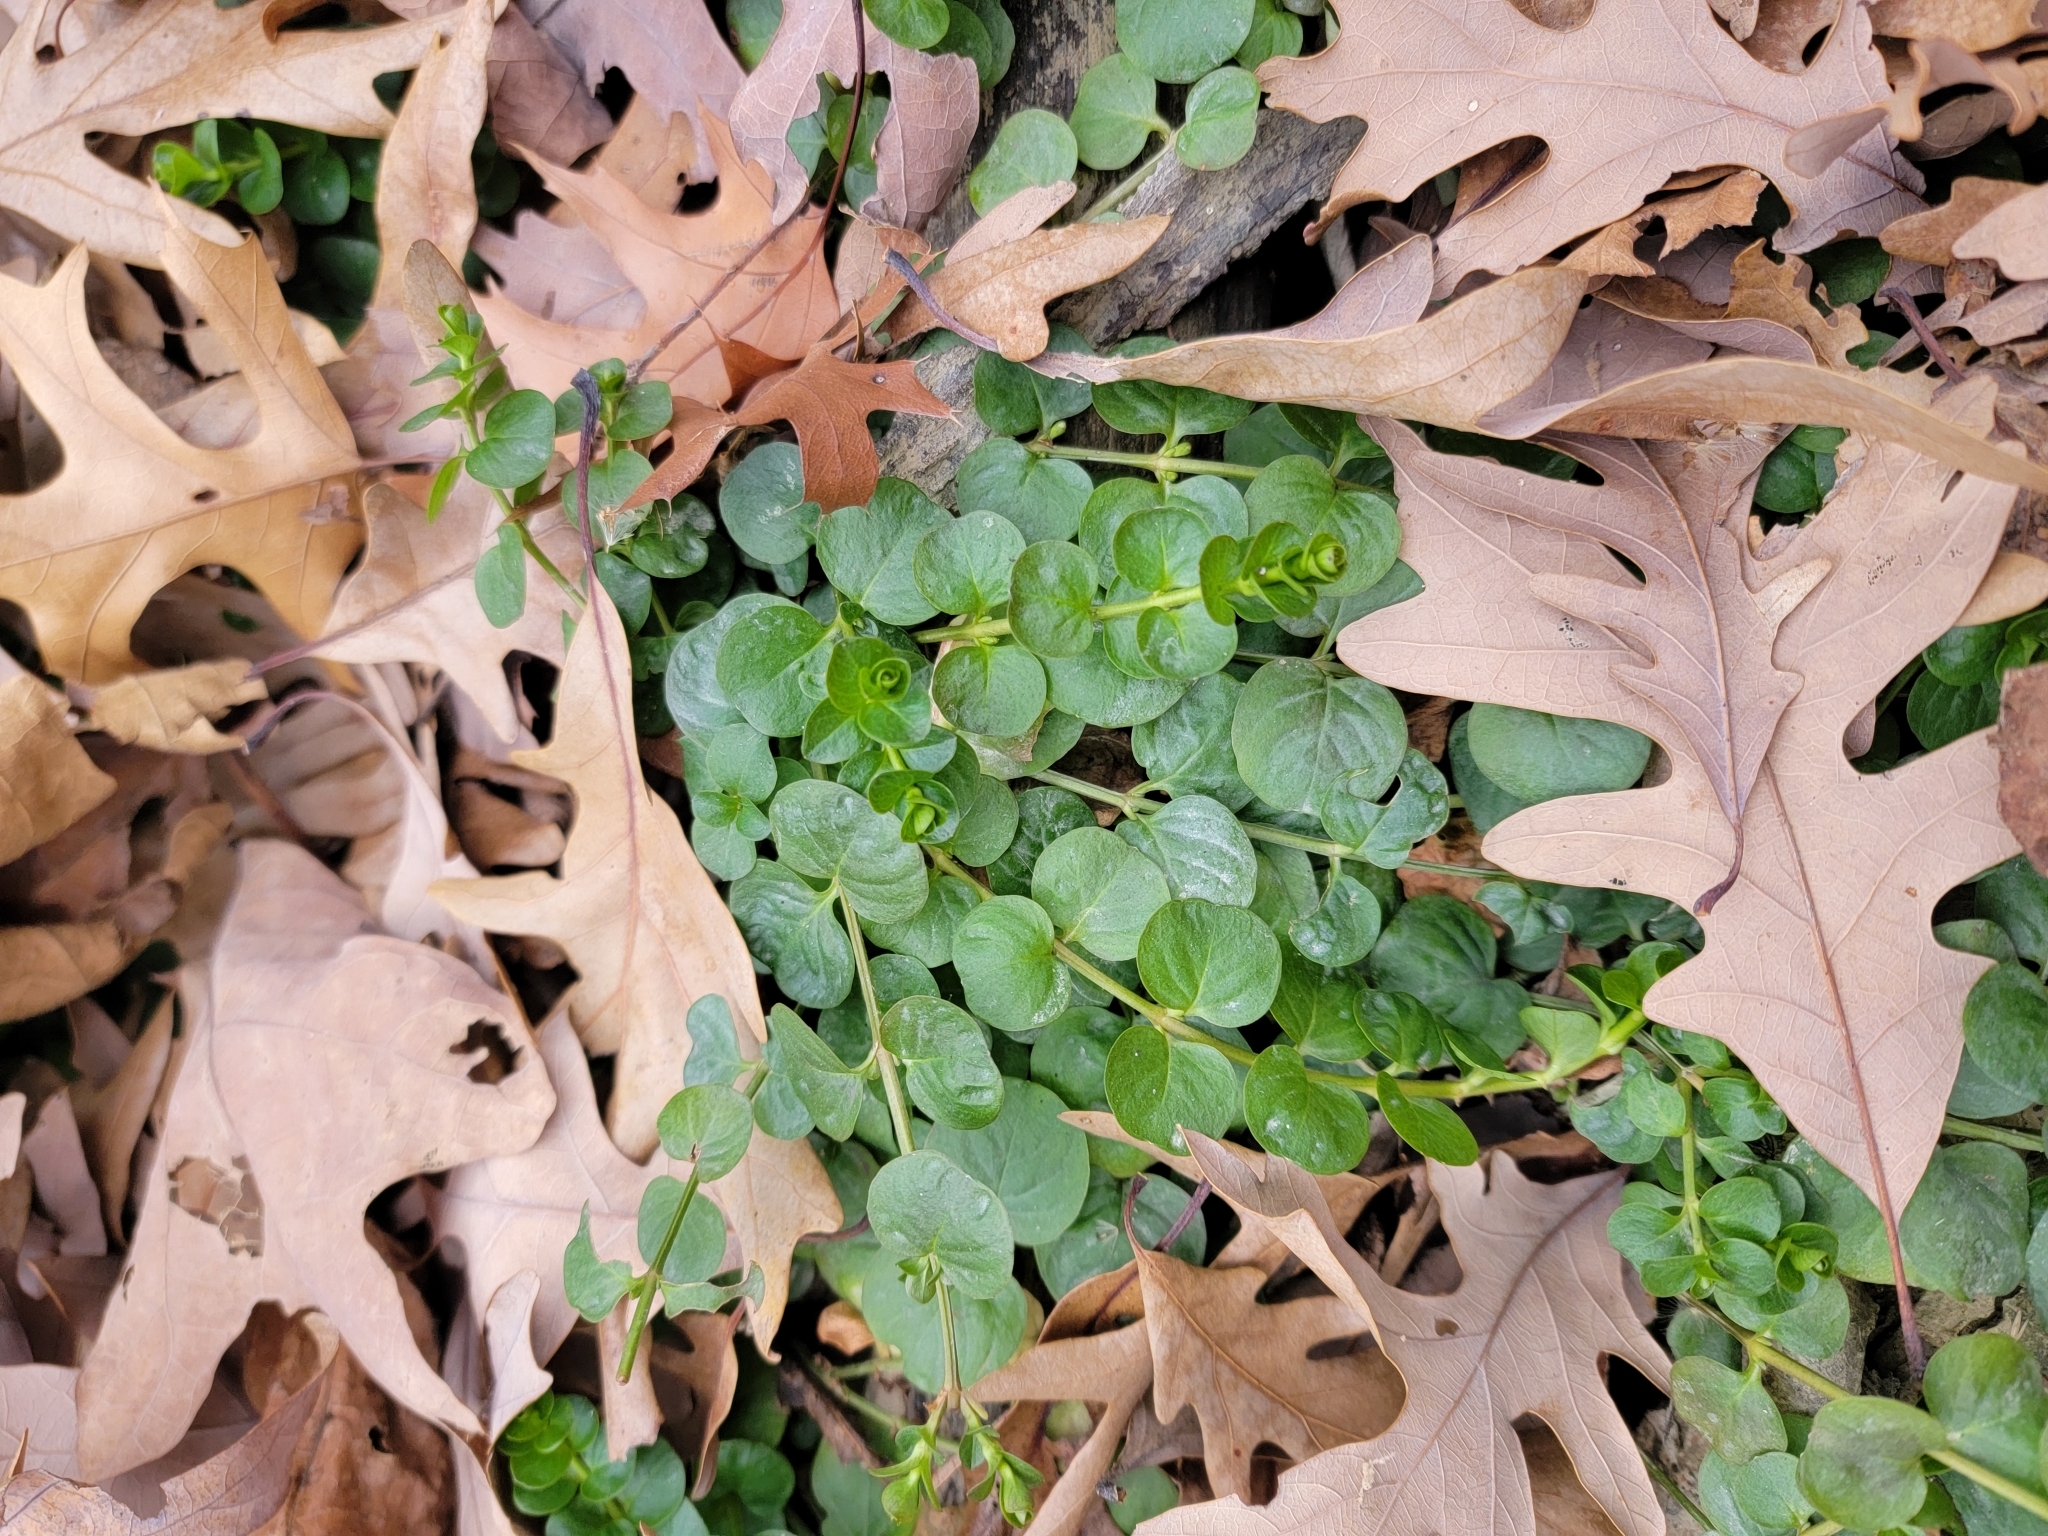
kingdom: Plantae
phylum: Tracheophyta
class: Magnoliopsida
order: Ericales
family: Primulaceae
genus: Lysimachia
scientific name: Lysimachia nummularia
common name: Moneywort
